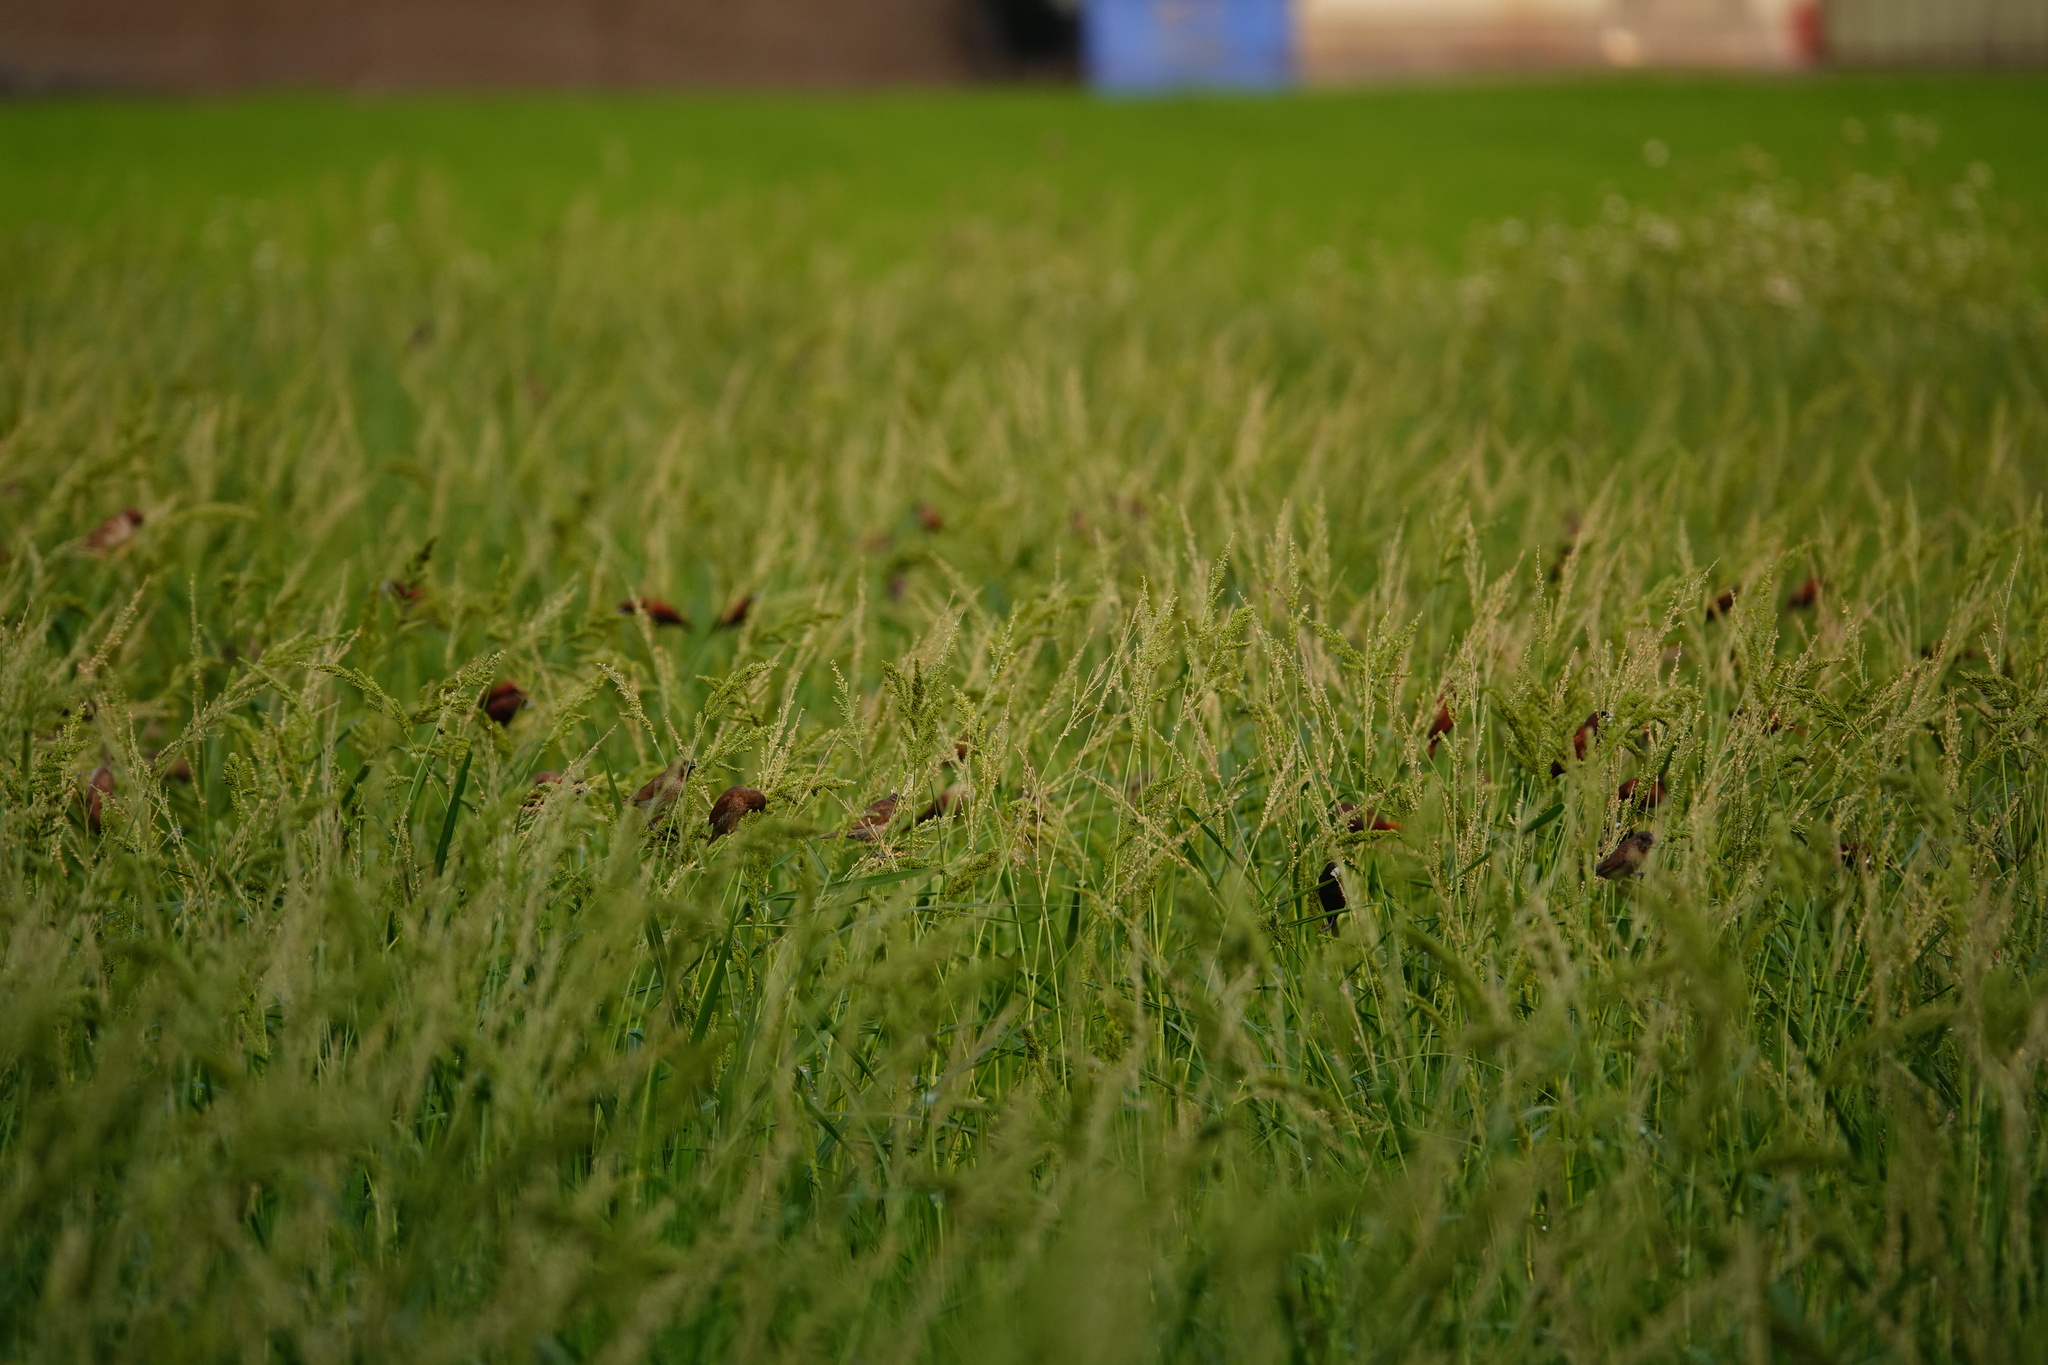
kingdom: Animalia
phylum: Chordata
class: Aves
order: Passeriformes
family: Estrildidae
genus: Lonchura
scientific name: Lonchura atricapilla
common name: Chestnut munia
